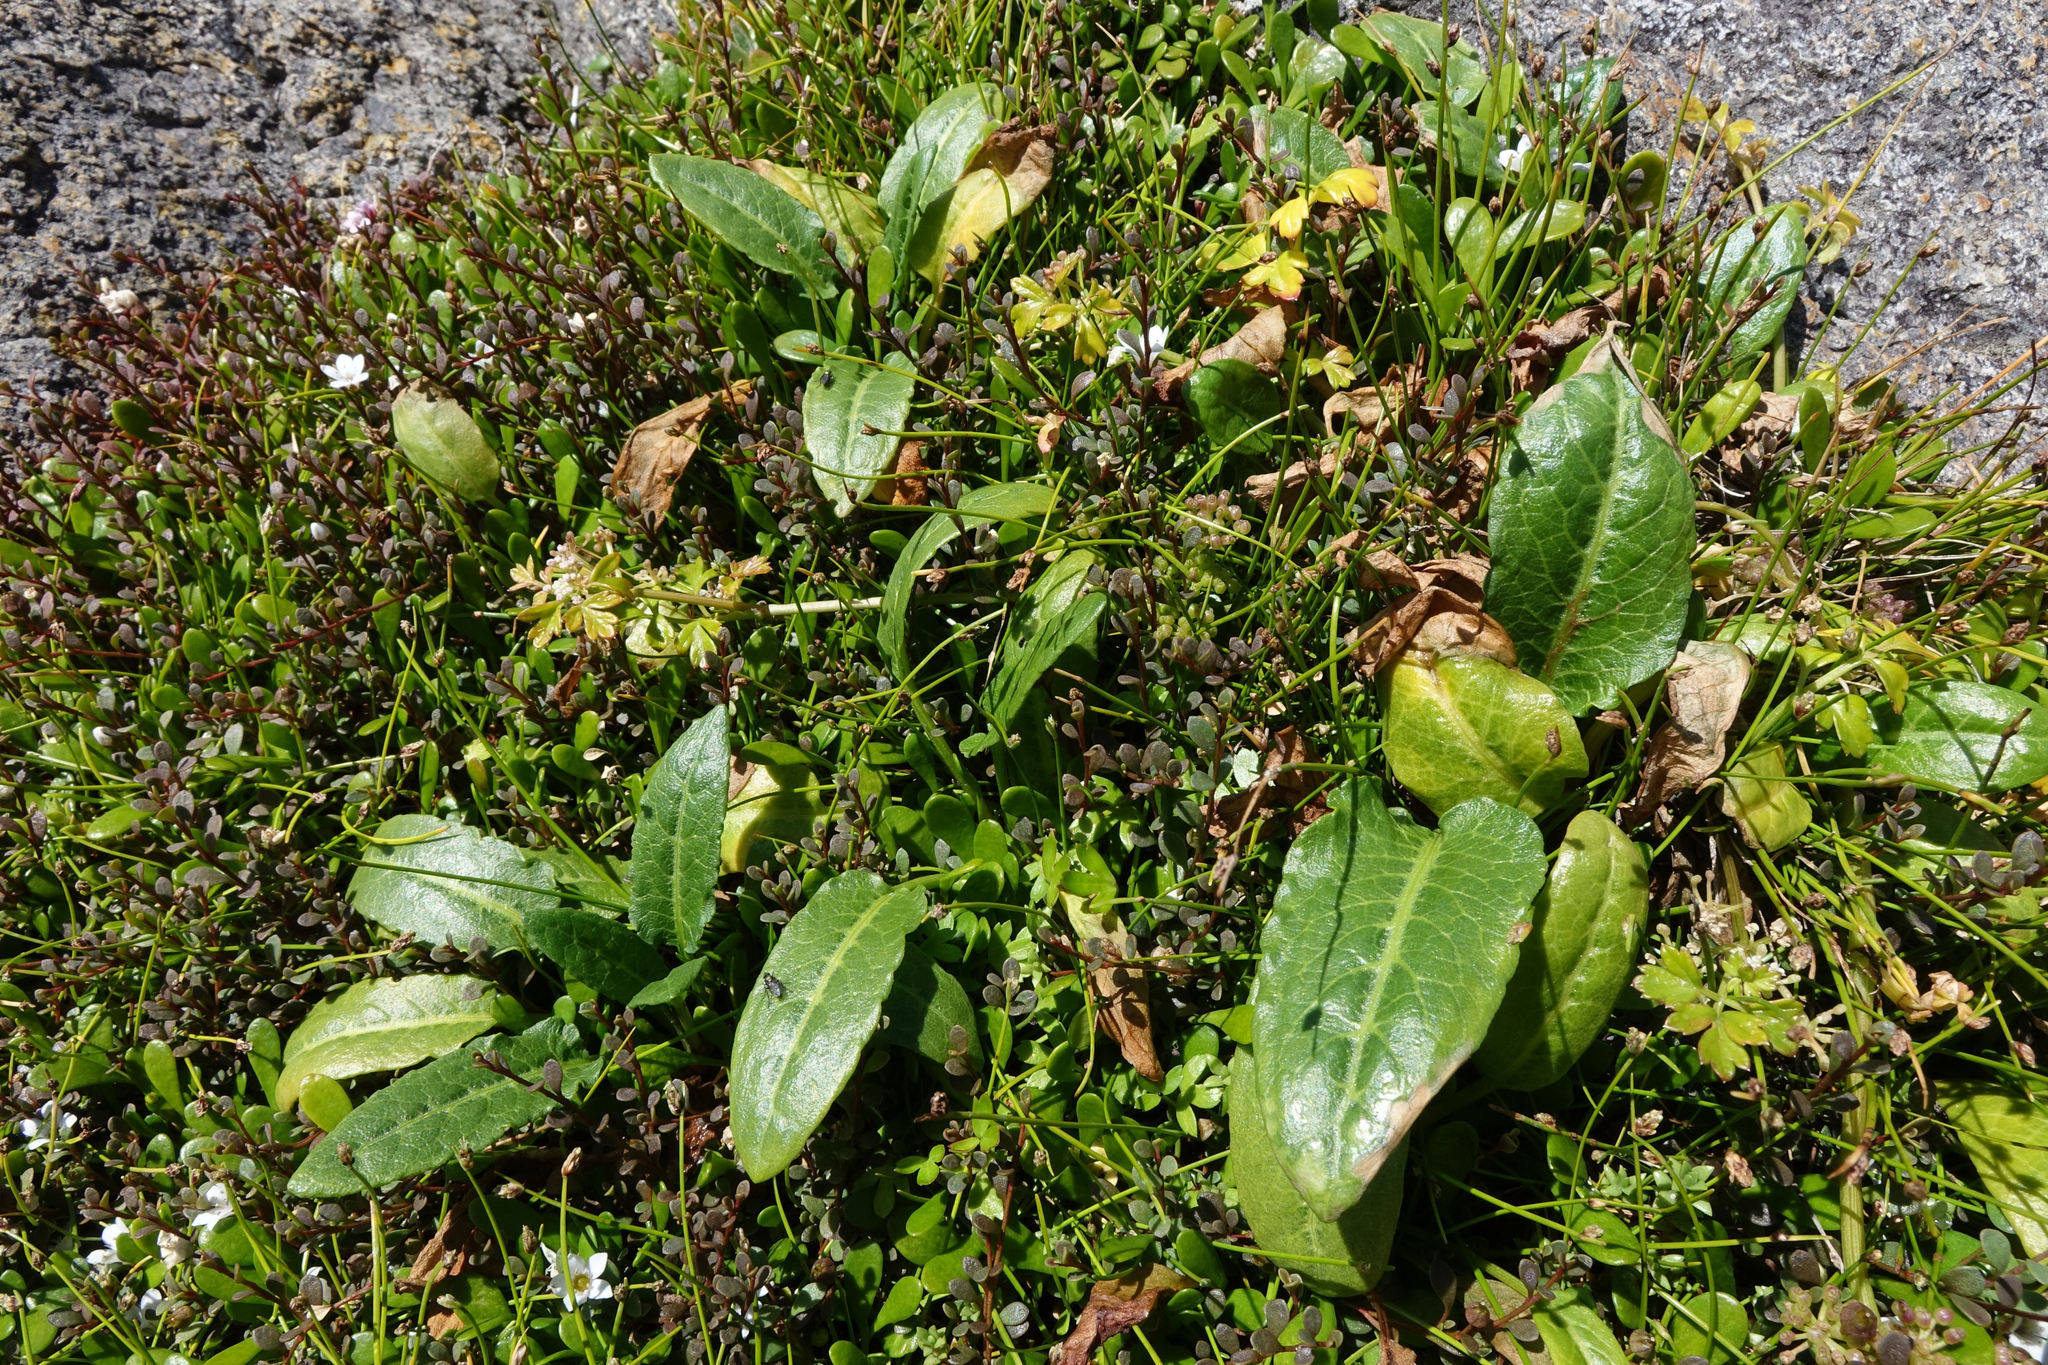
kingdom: Plantae
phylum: Tracheophyta
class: Magnoliopsida
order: Caryophyllales
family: Polygonaceae
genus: Rumex
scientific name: Rumex neglectus
